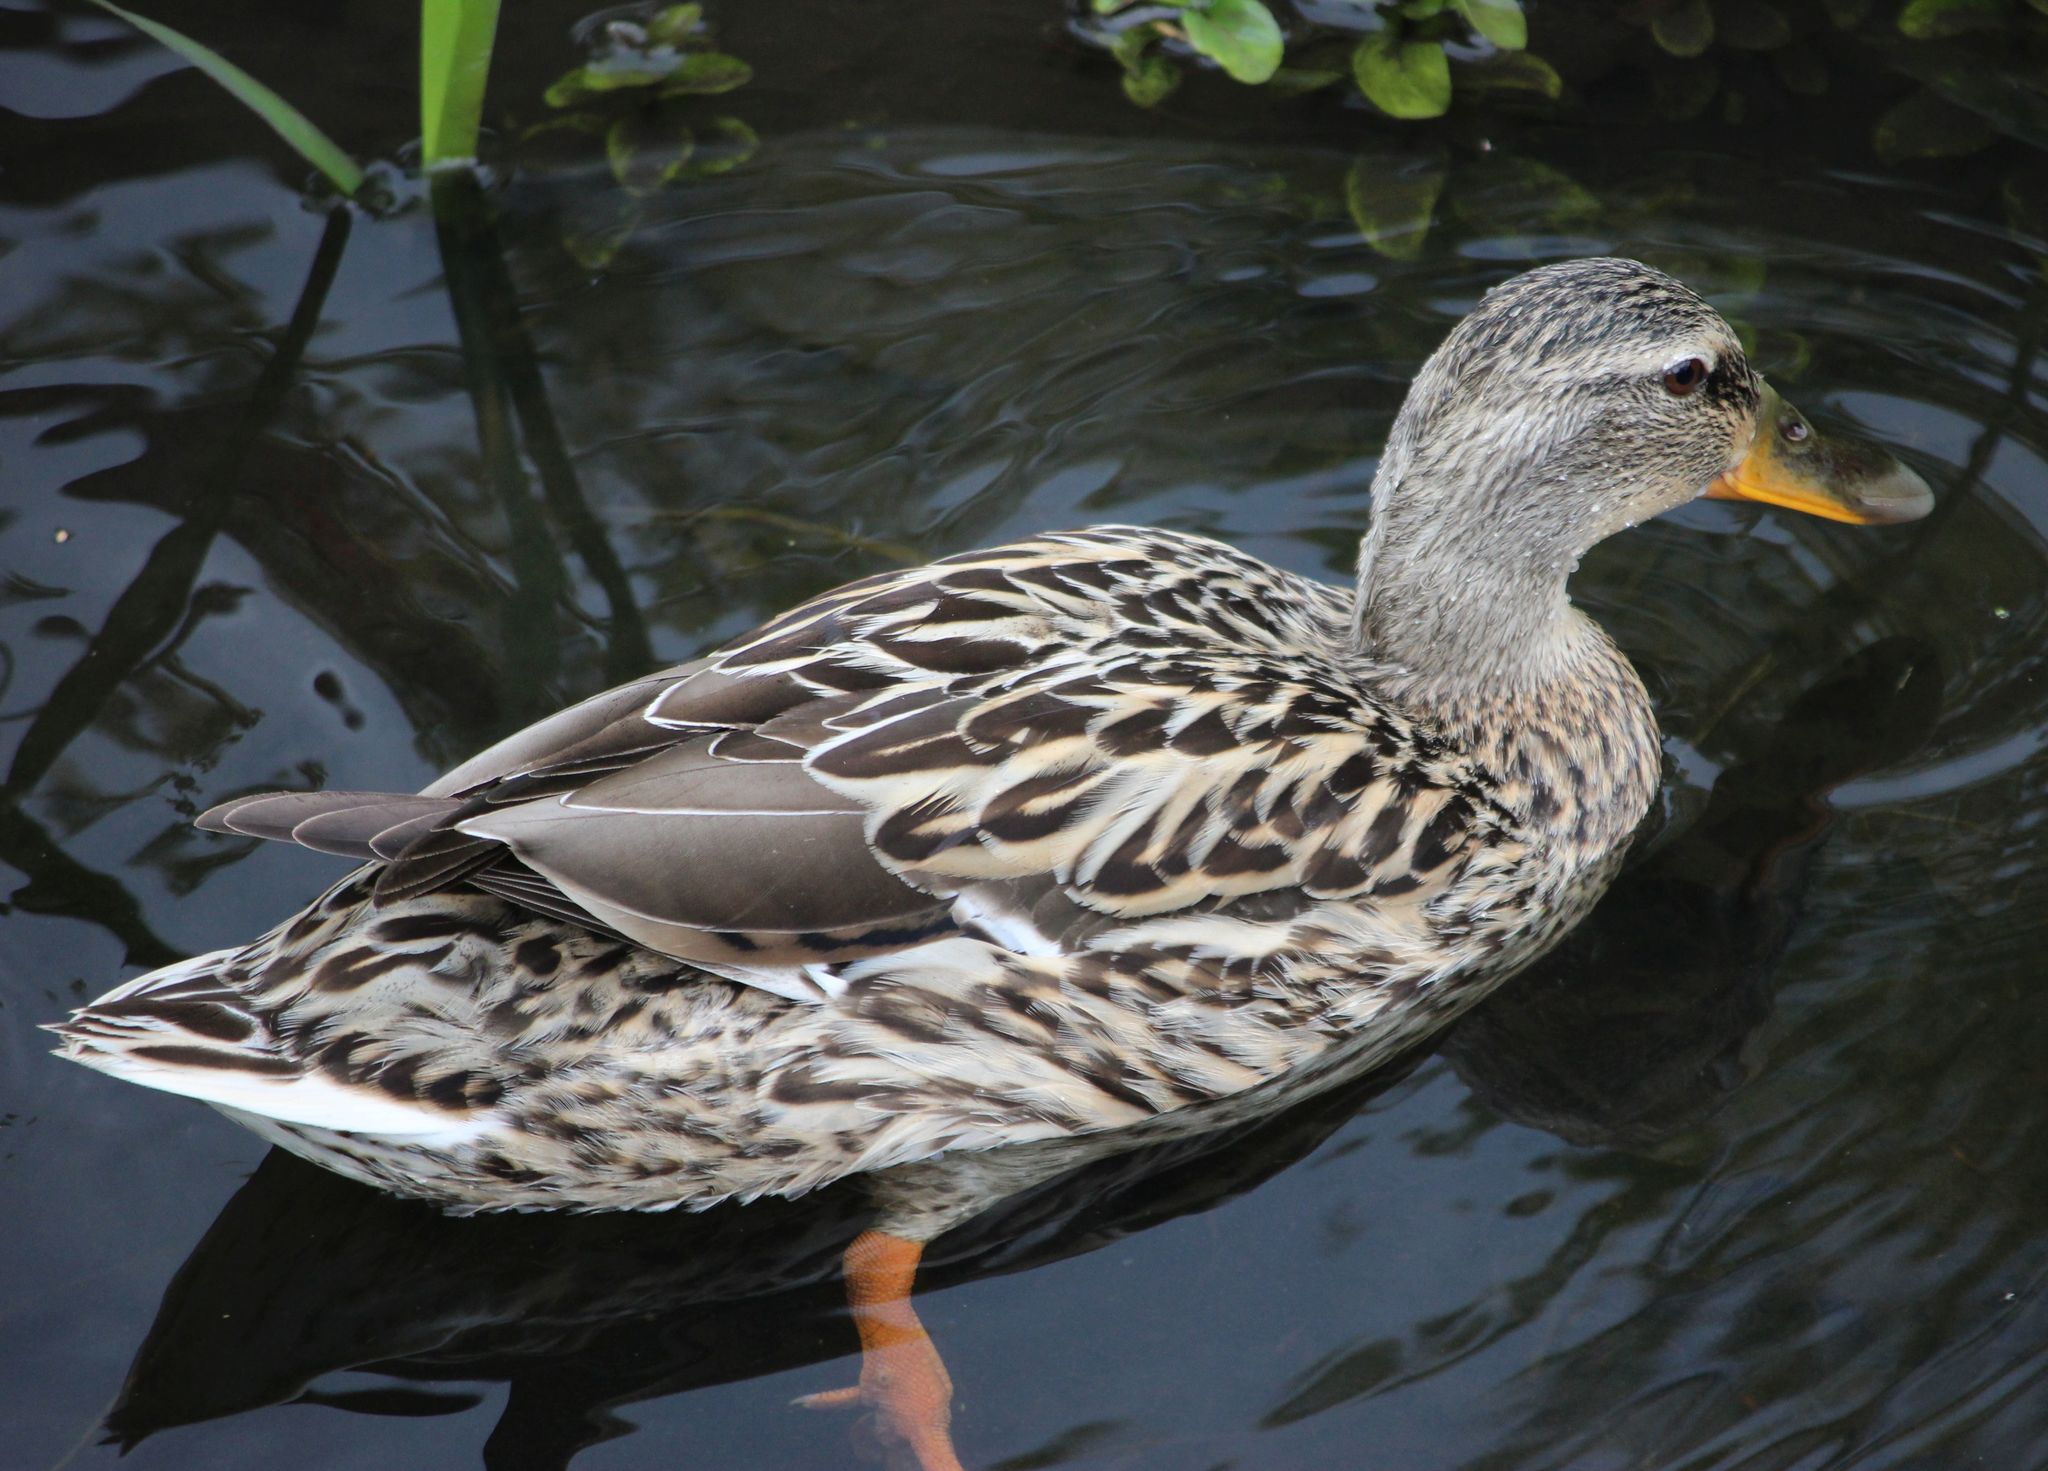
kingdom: Animalia
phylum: Chordata
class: Aves
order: Anseriformes
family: Anatidae
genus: Anas
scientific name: Anas platyrhynchos
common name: Mallard
